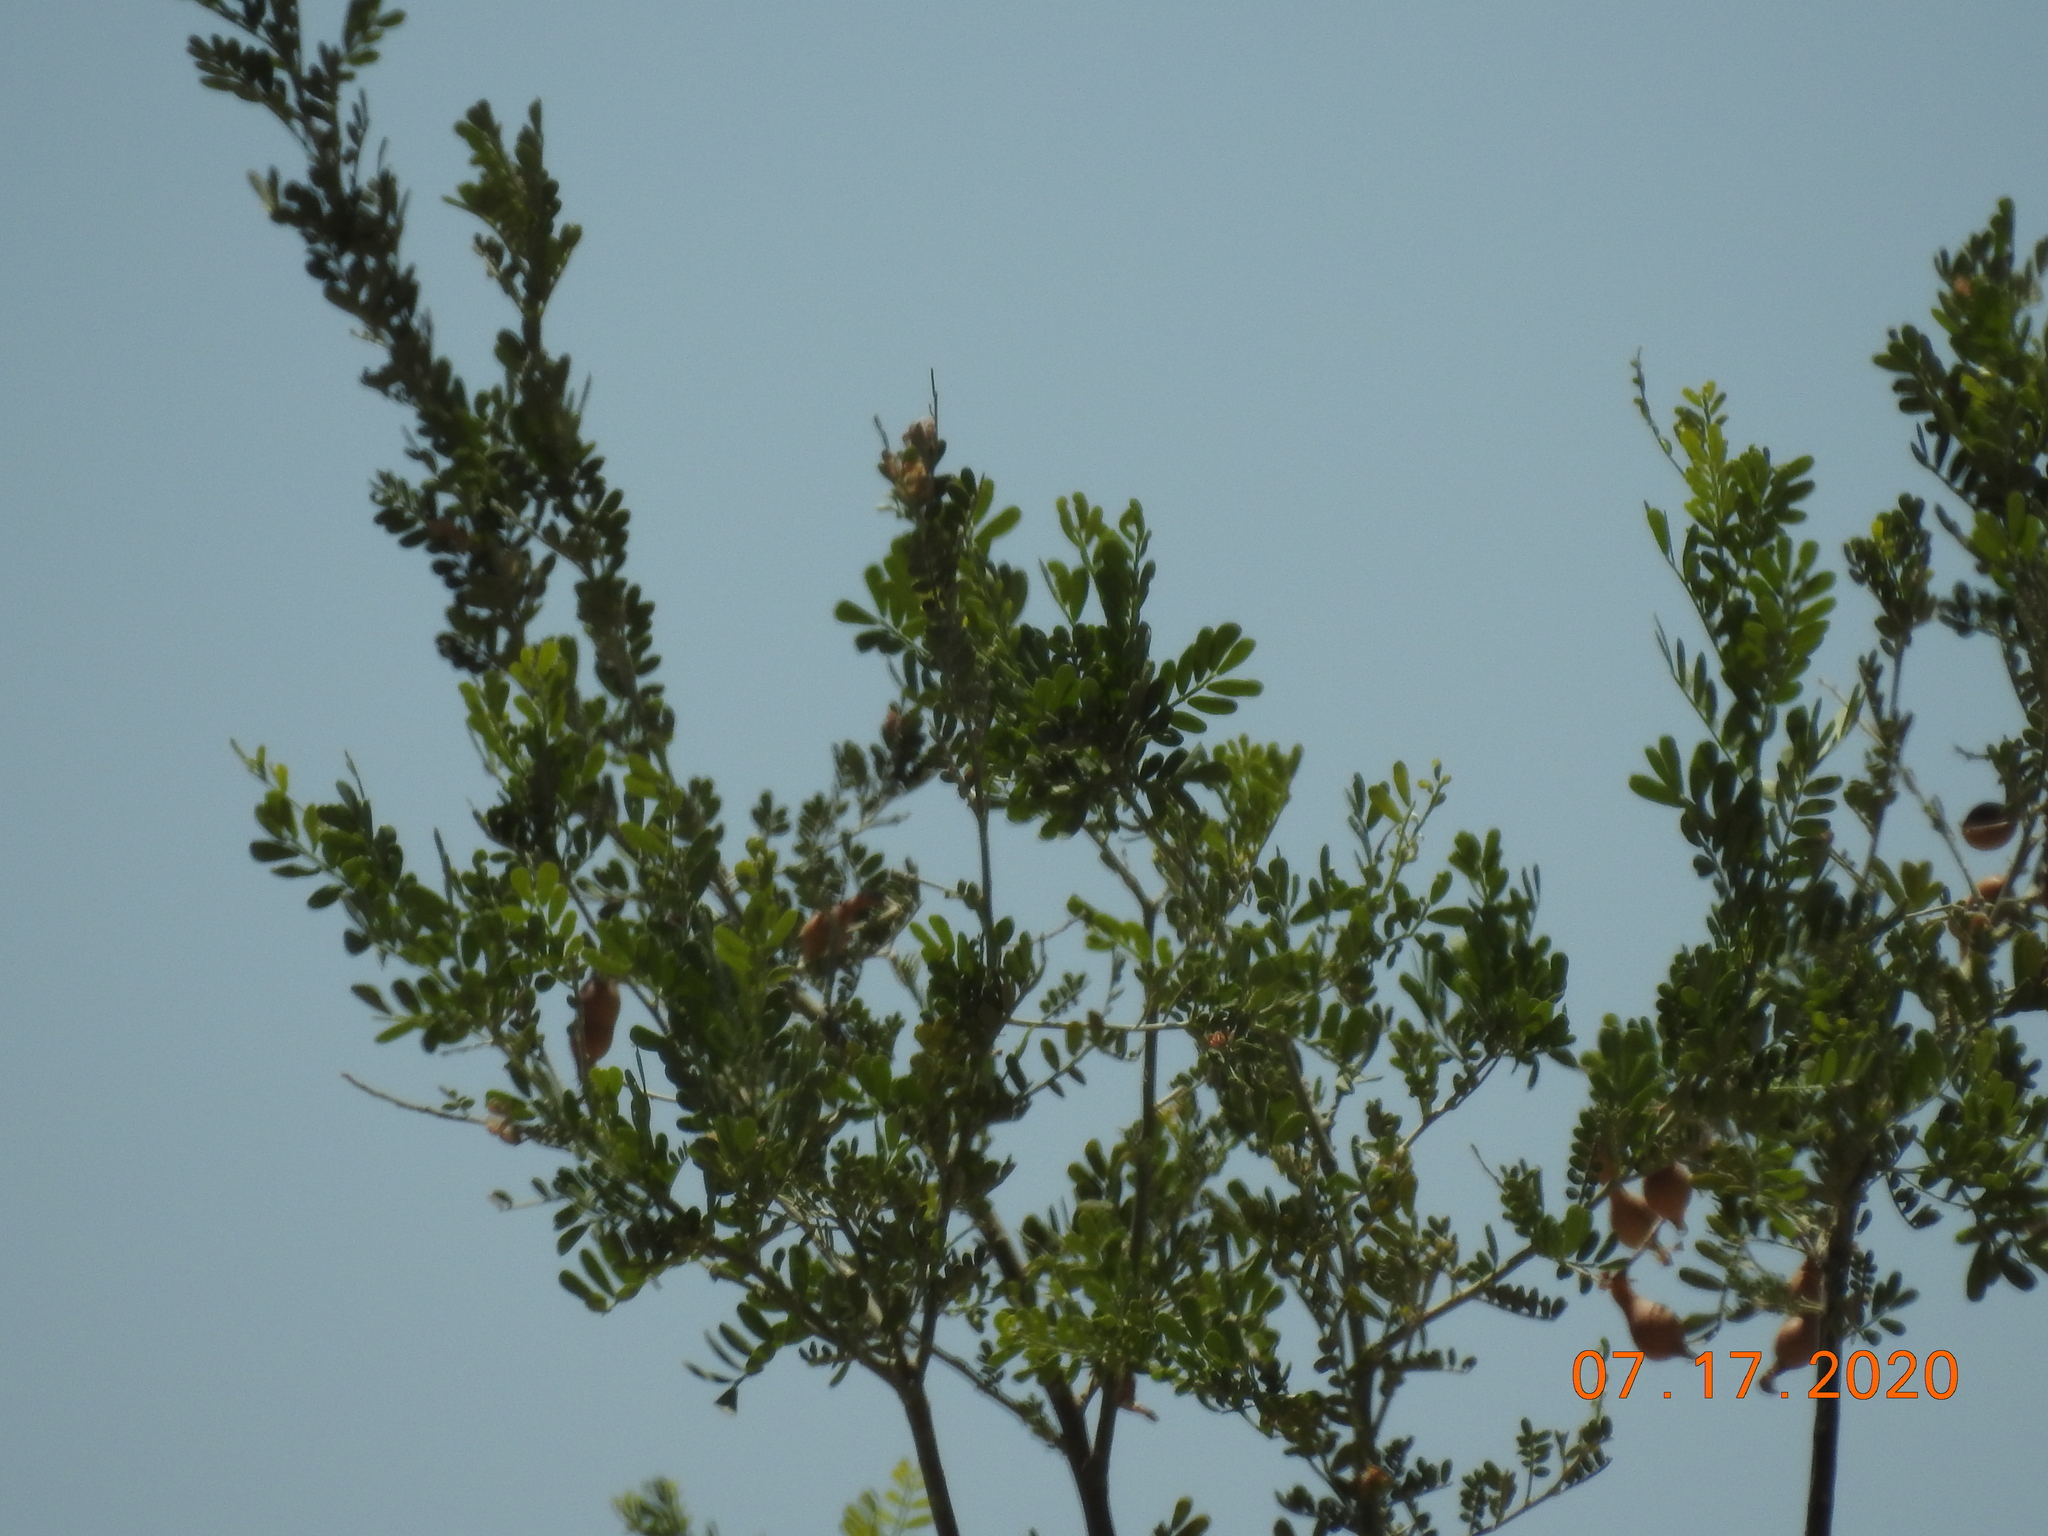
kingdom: Plantae
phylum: Tracheophyta
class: Magnoliopsida
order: Fabales
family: Fabaceae
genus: Olneya
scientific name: Olneya tesota
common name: Desert ironwood
